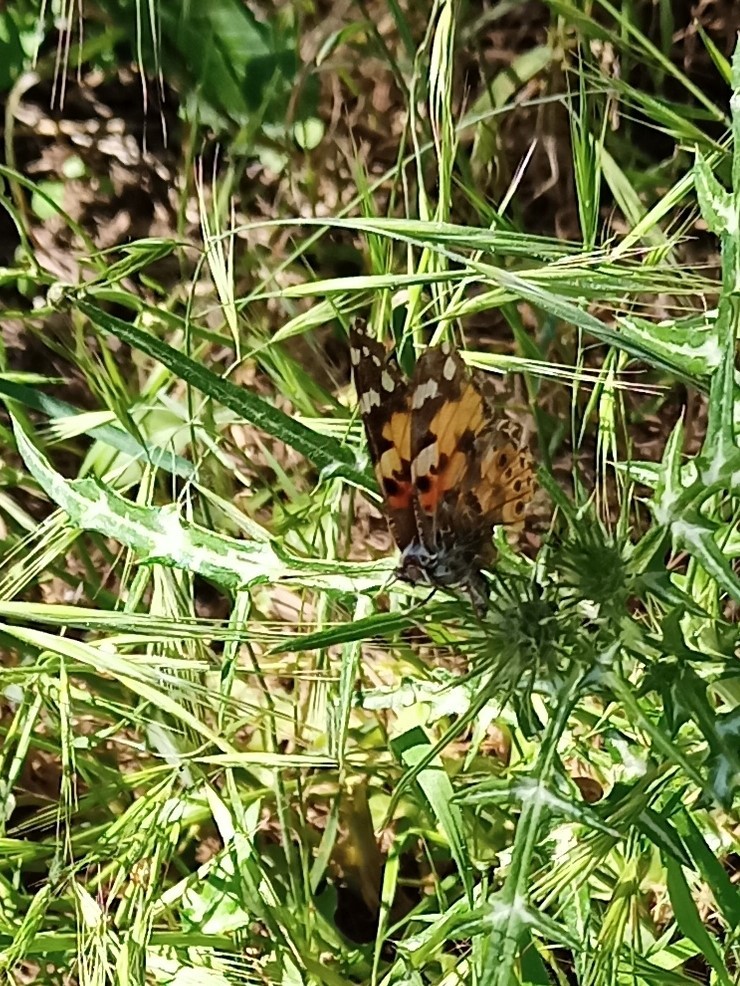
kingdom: Animalia
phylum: Arthropoda
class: Insecta
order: Lepidoptera
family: Nymphalidae
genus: Vanessa
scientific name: Vanessa cardui
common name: Painted lady
